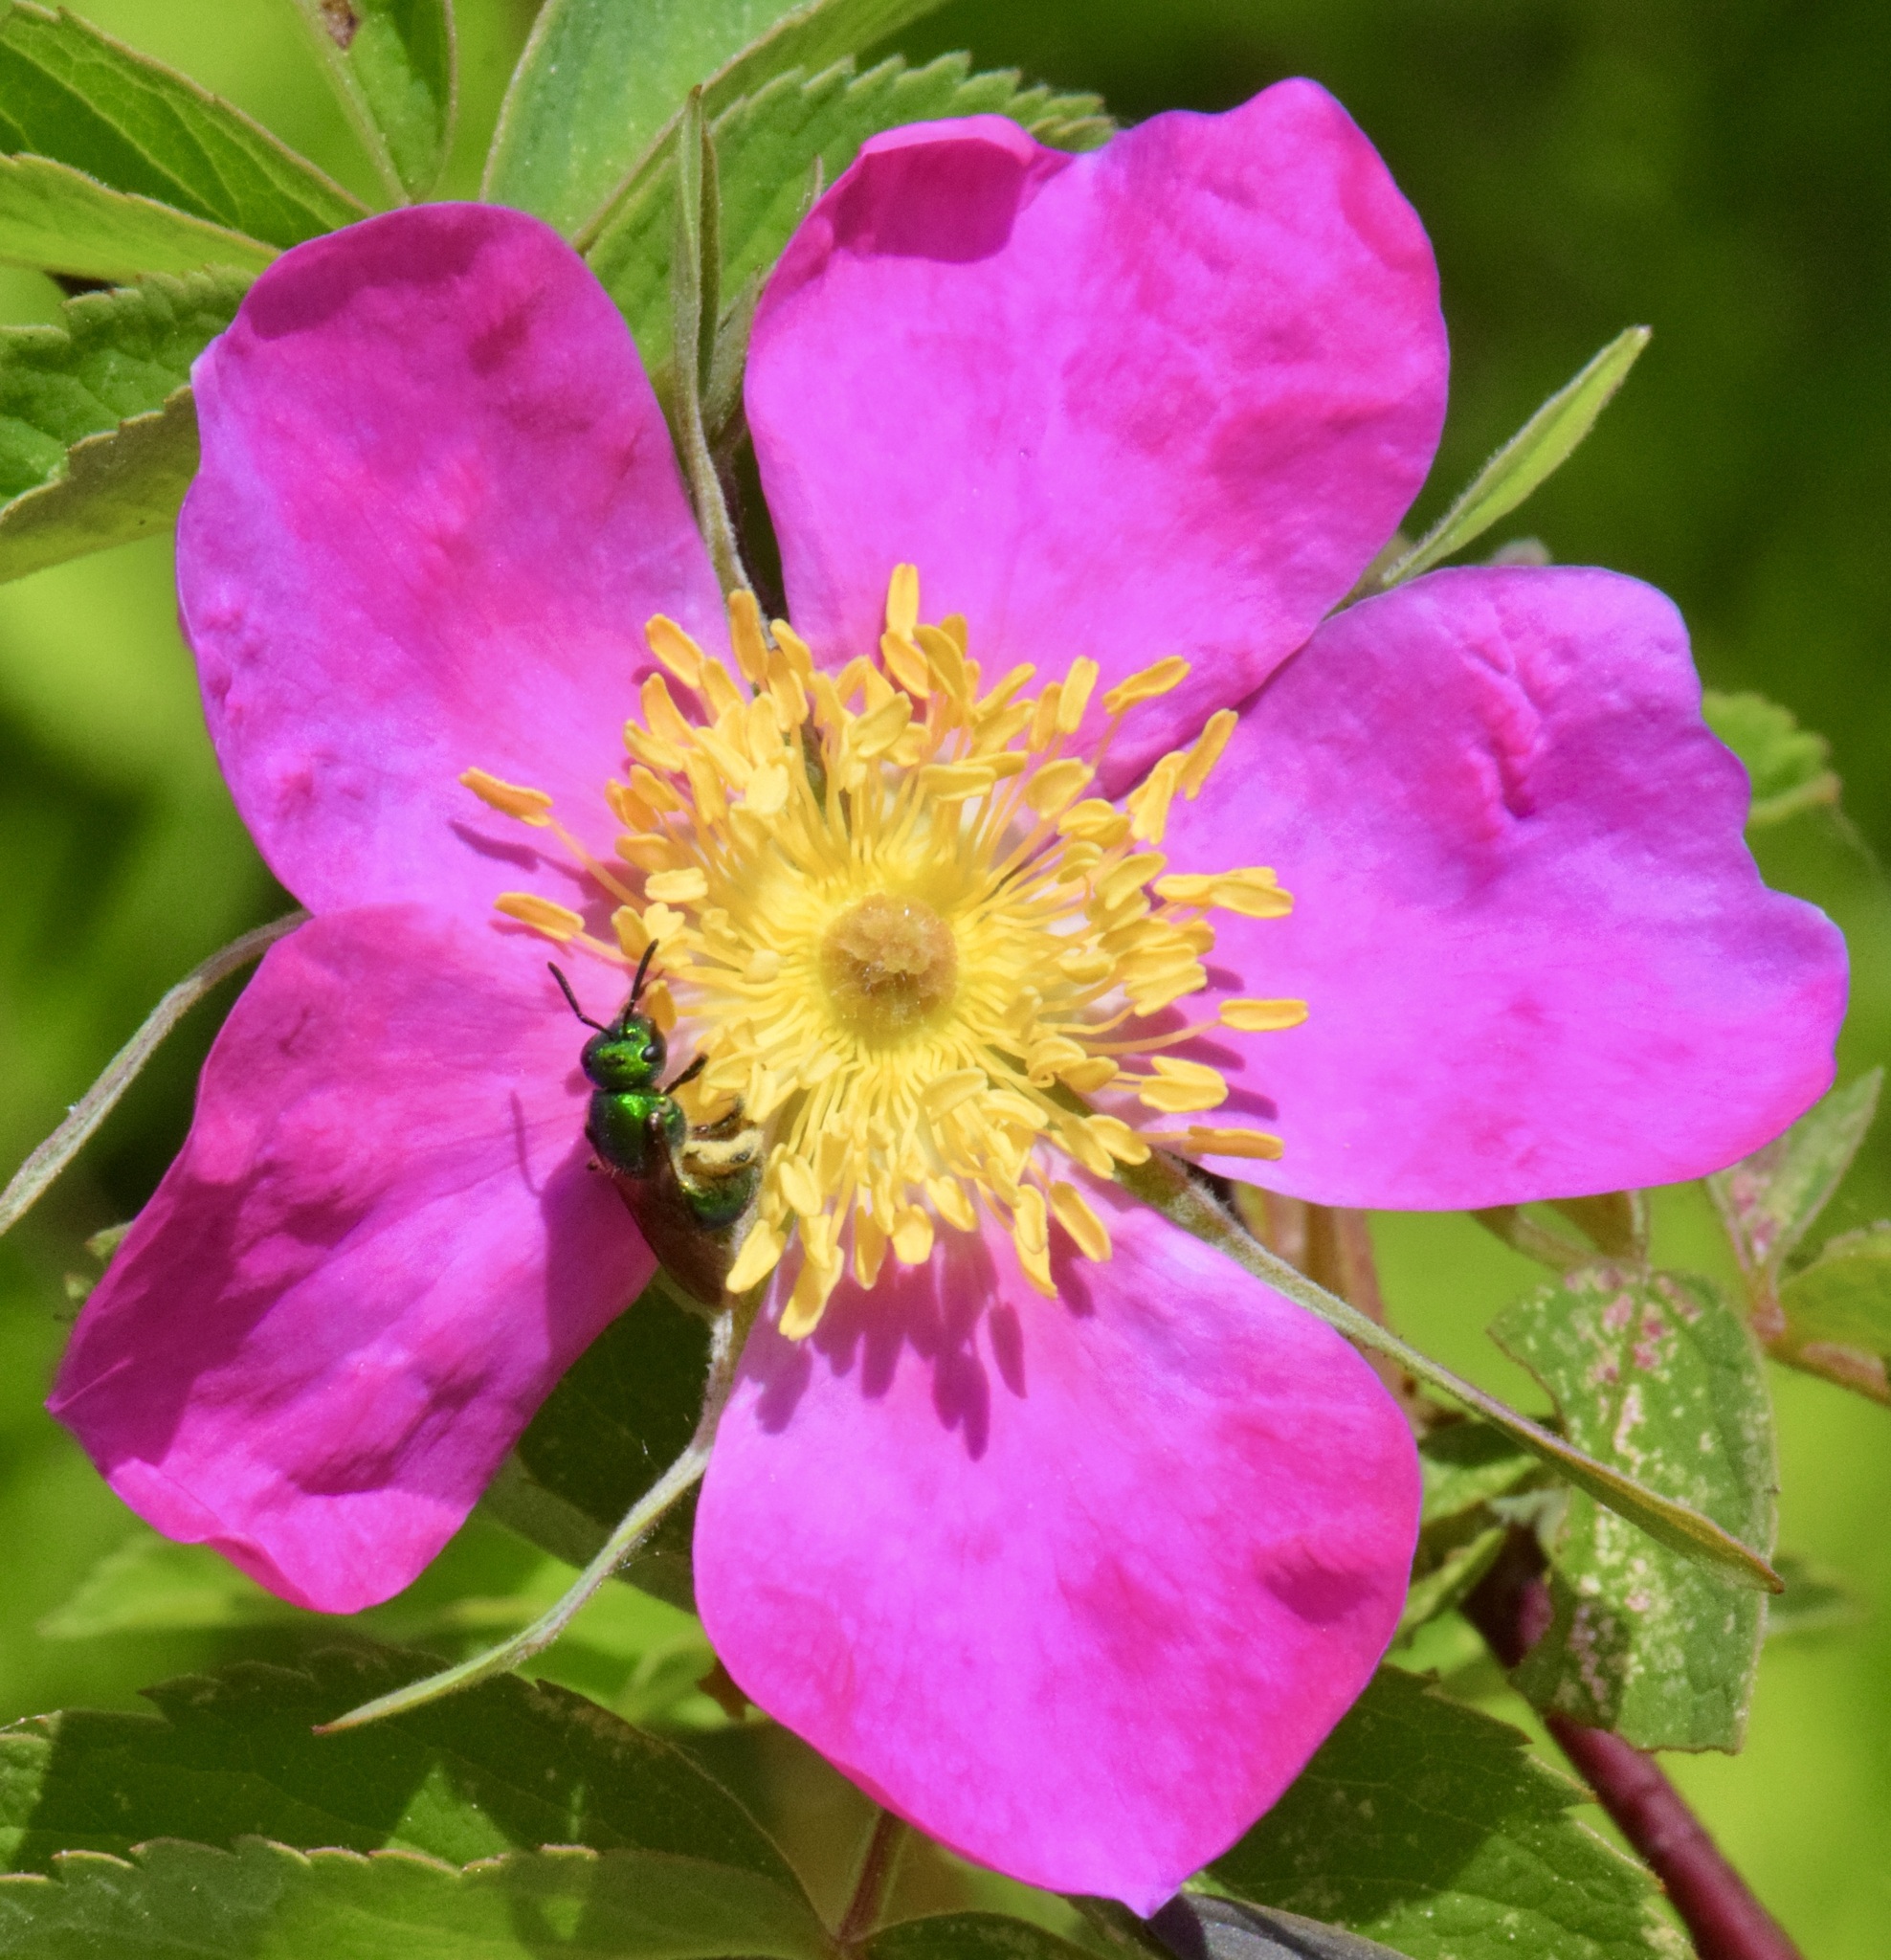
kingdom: Animalia
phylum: Arthropoda
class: Insecta
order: Hymenoptera
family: Halictidae
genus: Augochlora
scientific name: Augochlora pura
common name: Pure green sweat bee
